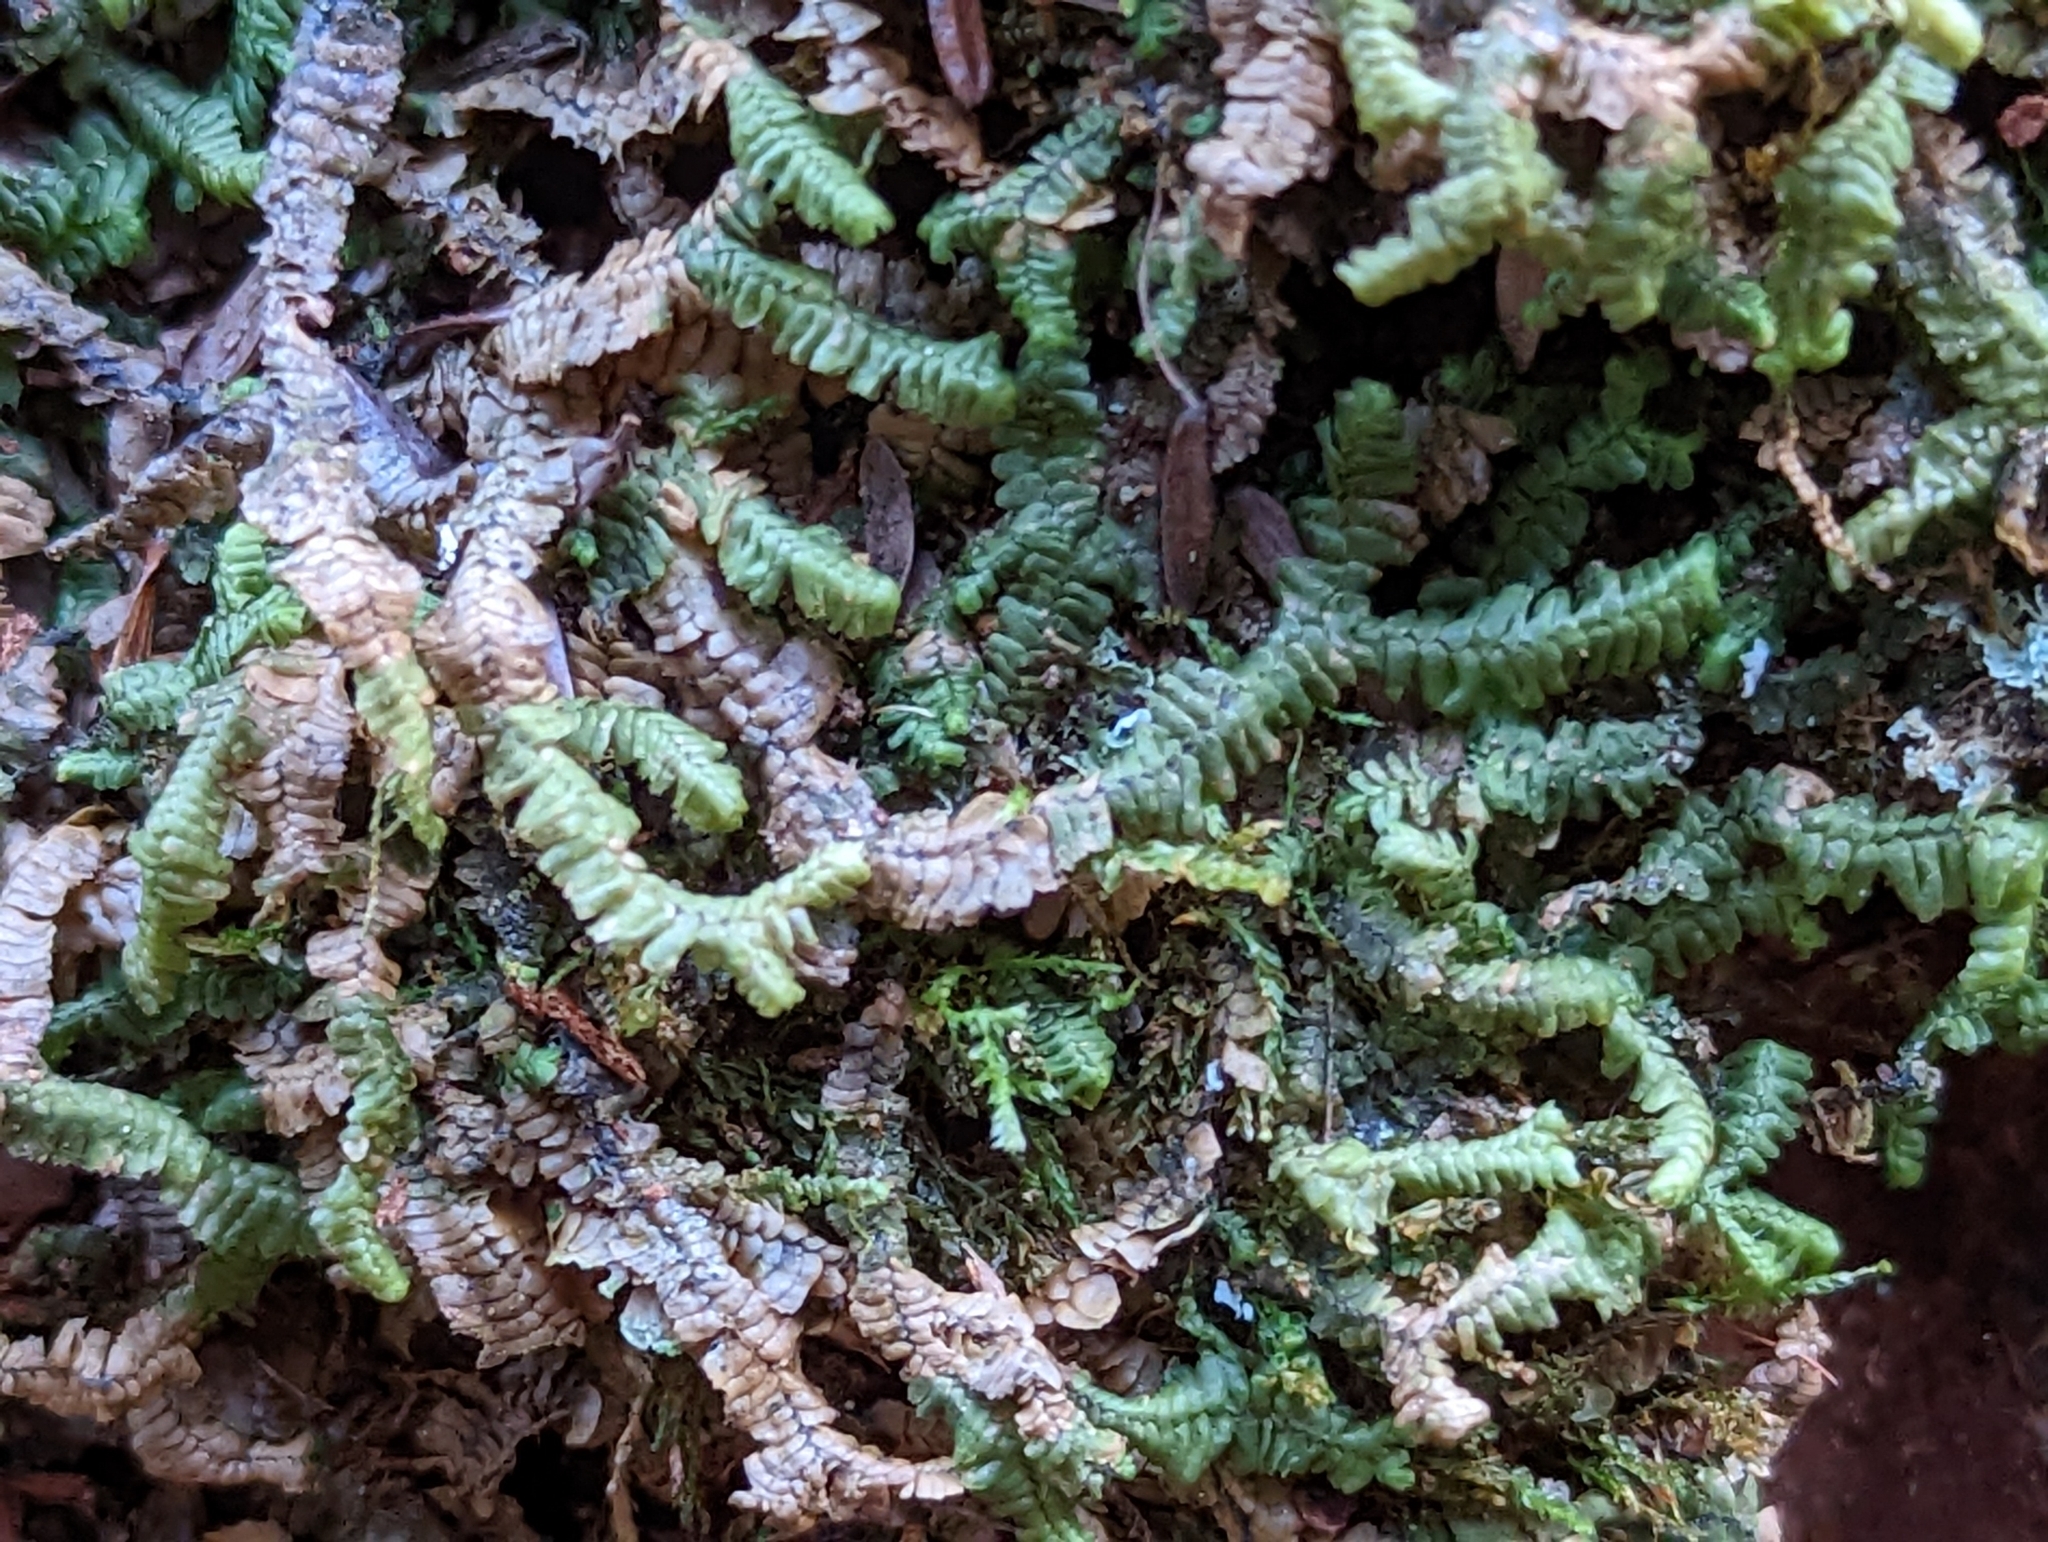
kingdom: Plantae
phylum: Marchantiophyta
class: Jungermanniopsida
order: Jungermanniales
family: Lepidoziaceae
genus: Bazzania
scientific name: Bazzania trilobata
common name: Three-lobed whipwort
